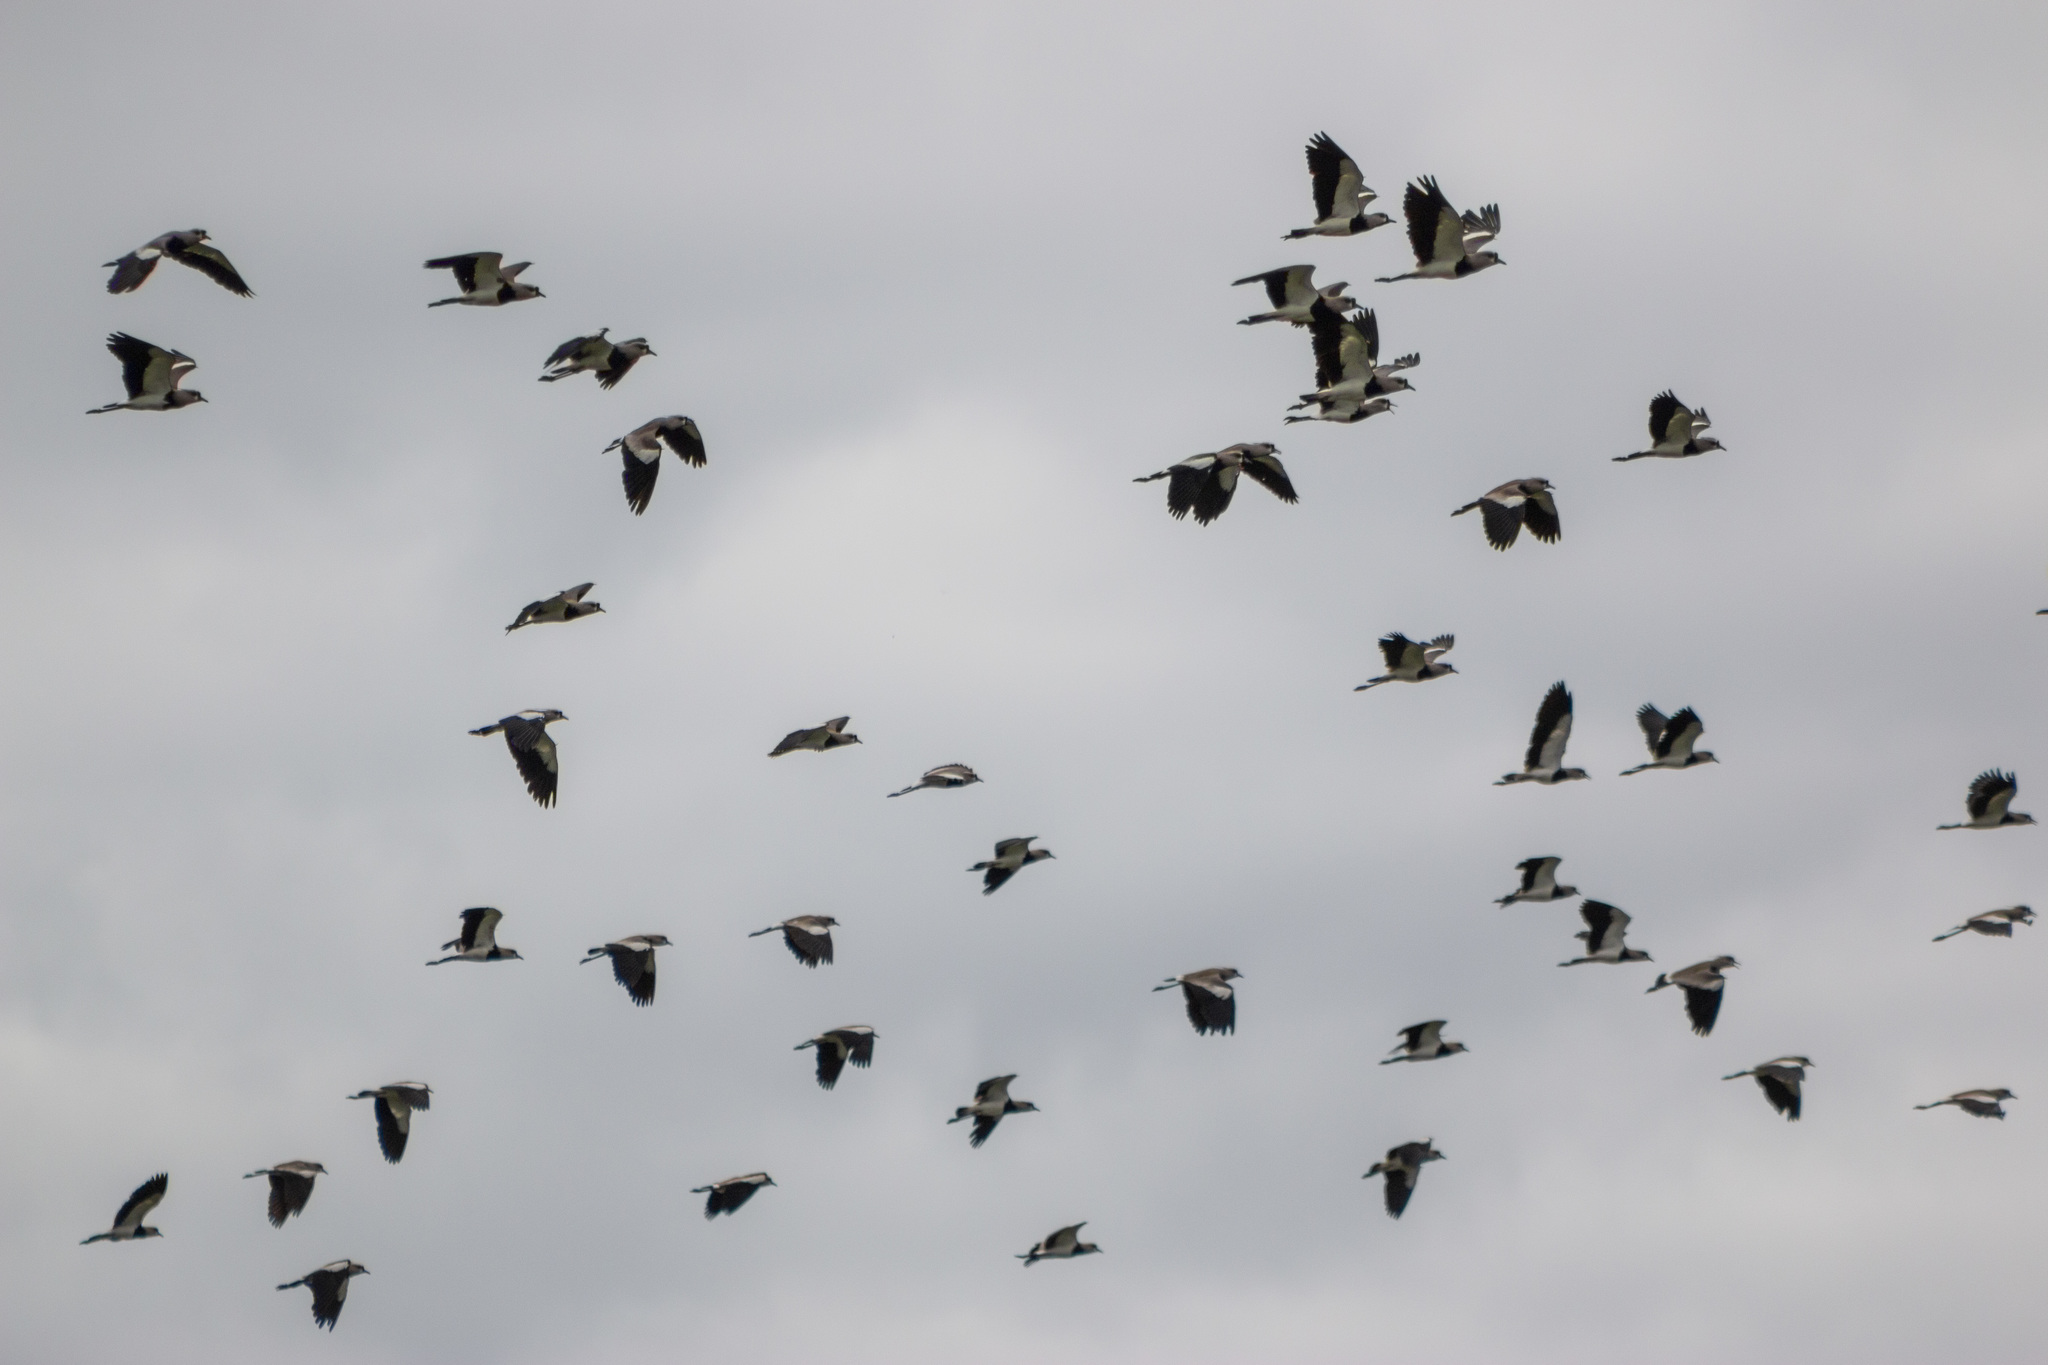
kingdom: Animalia
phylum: Chordata
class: Aves
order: Charadriiformes
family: Charadriidae
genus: Vanellus
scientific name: Vanellus chilensis
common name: Southern lapwing
